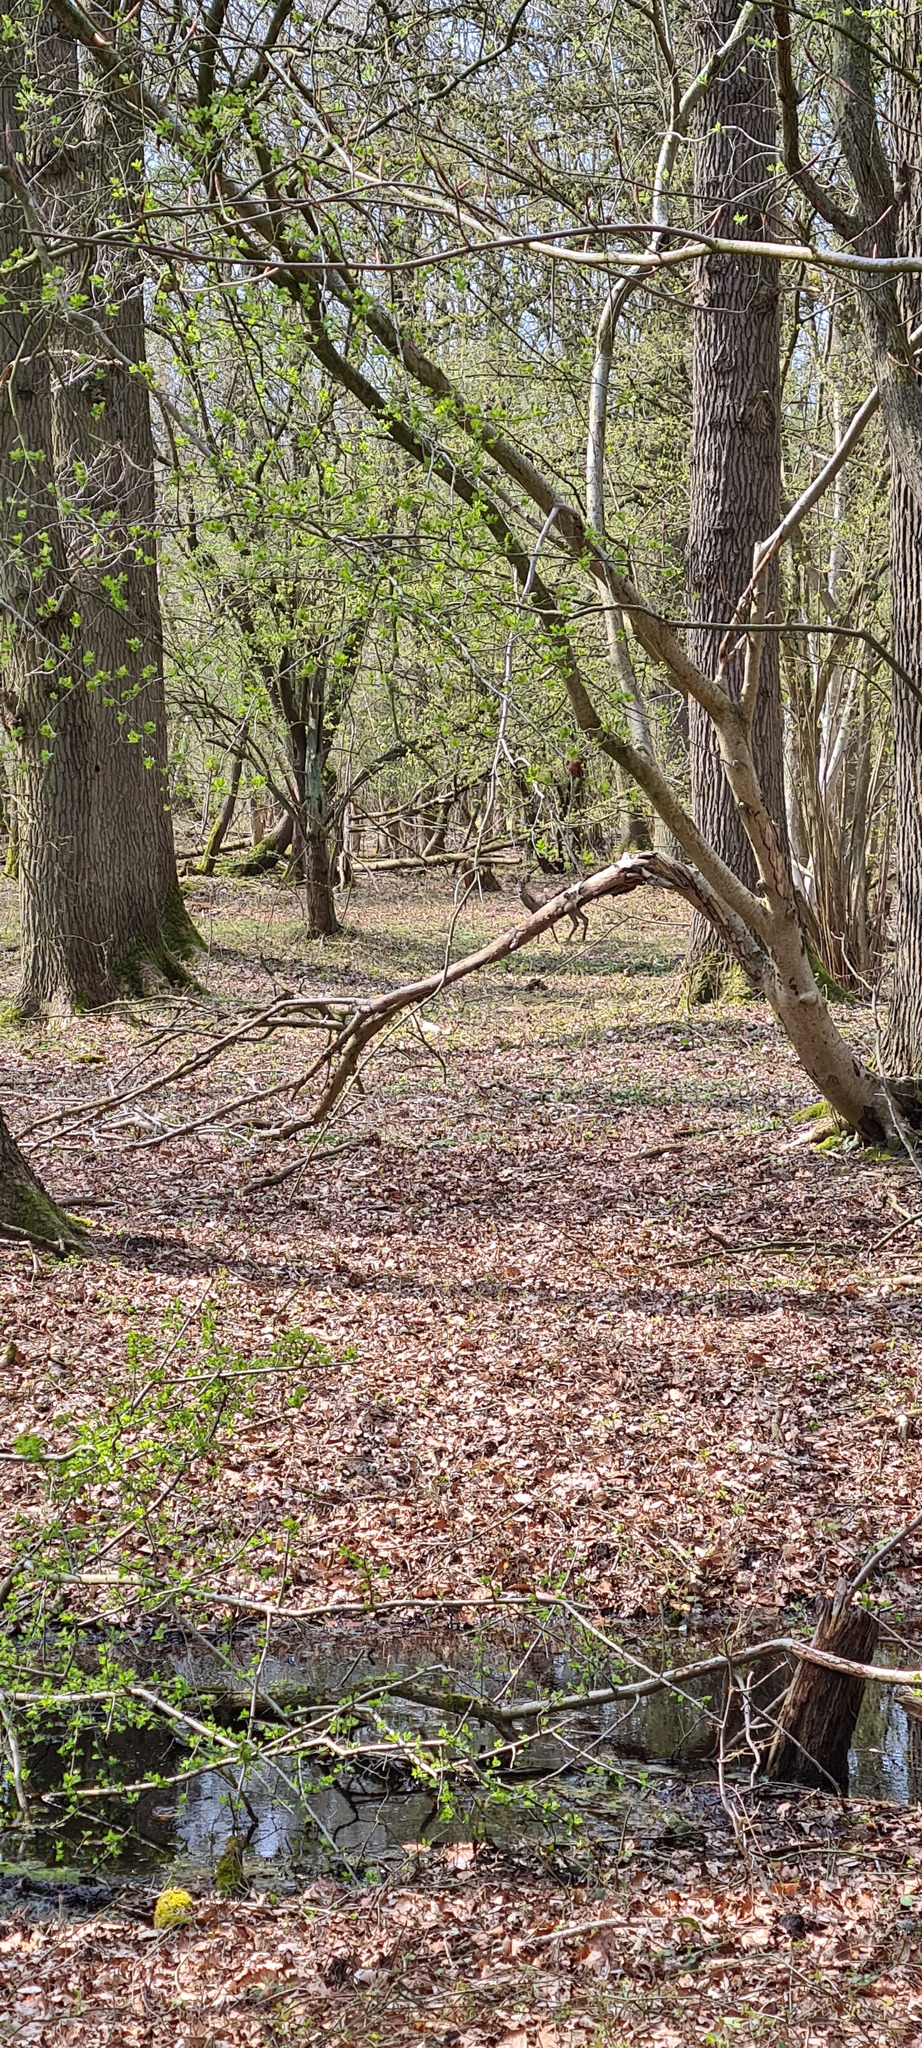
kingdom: Animalia
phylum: Chordata
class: Mammalia
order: Artiodactyla
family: Cervidae
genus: Capreolus
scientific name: Capreolus capreolus
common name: Western roe deer
